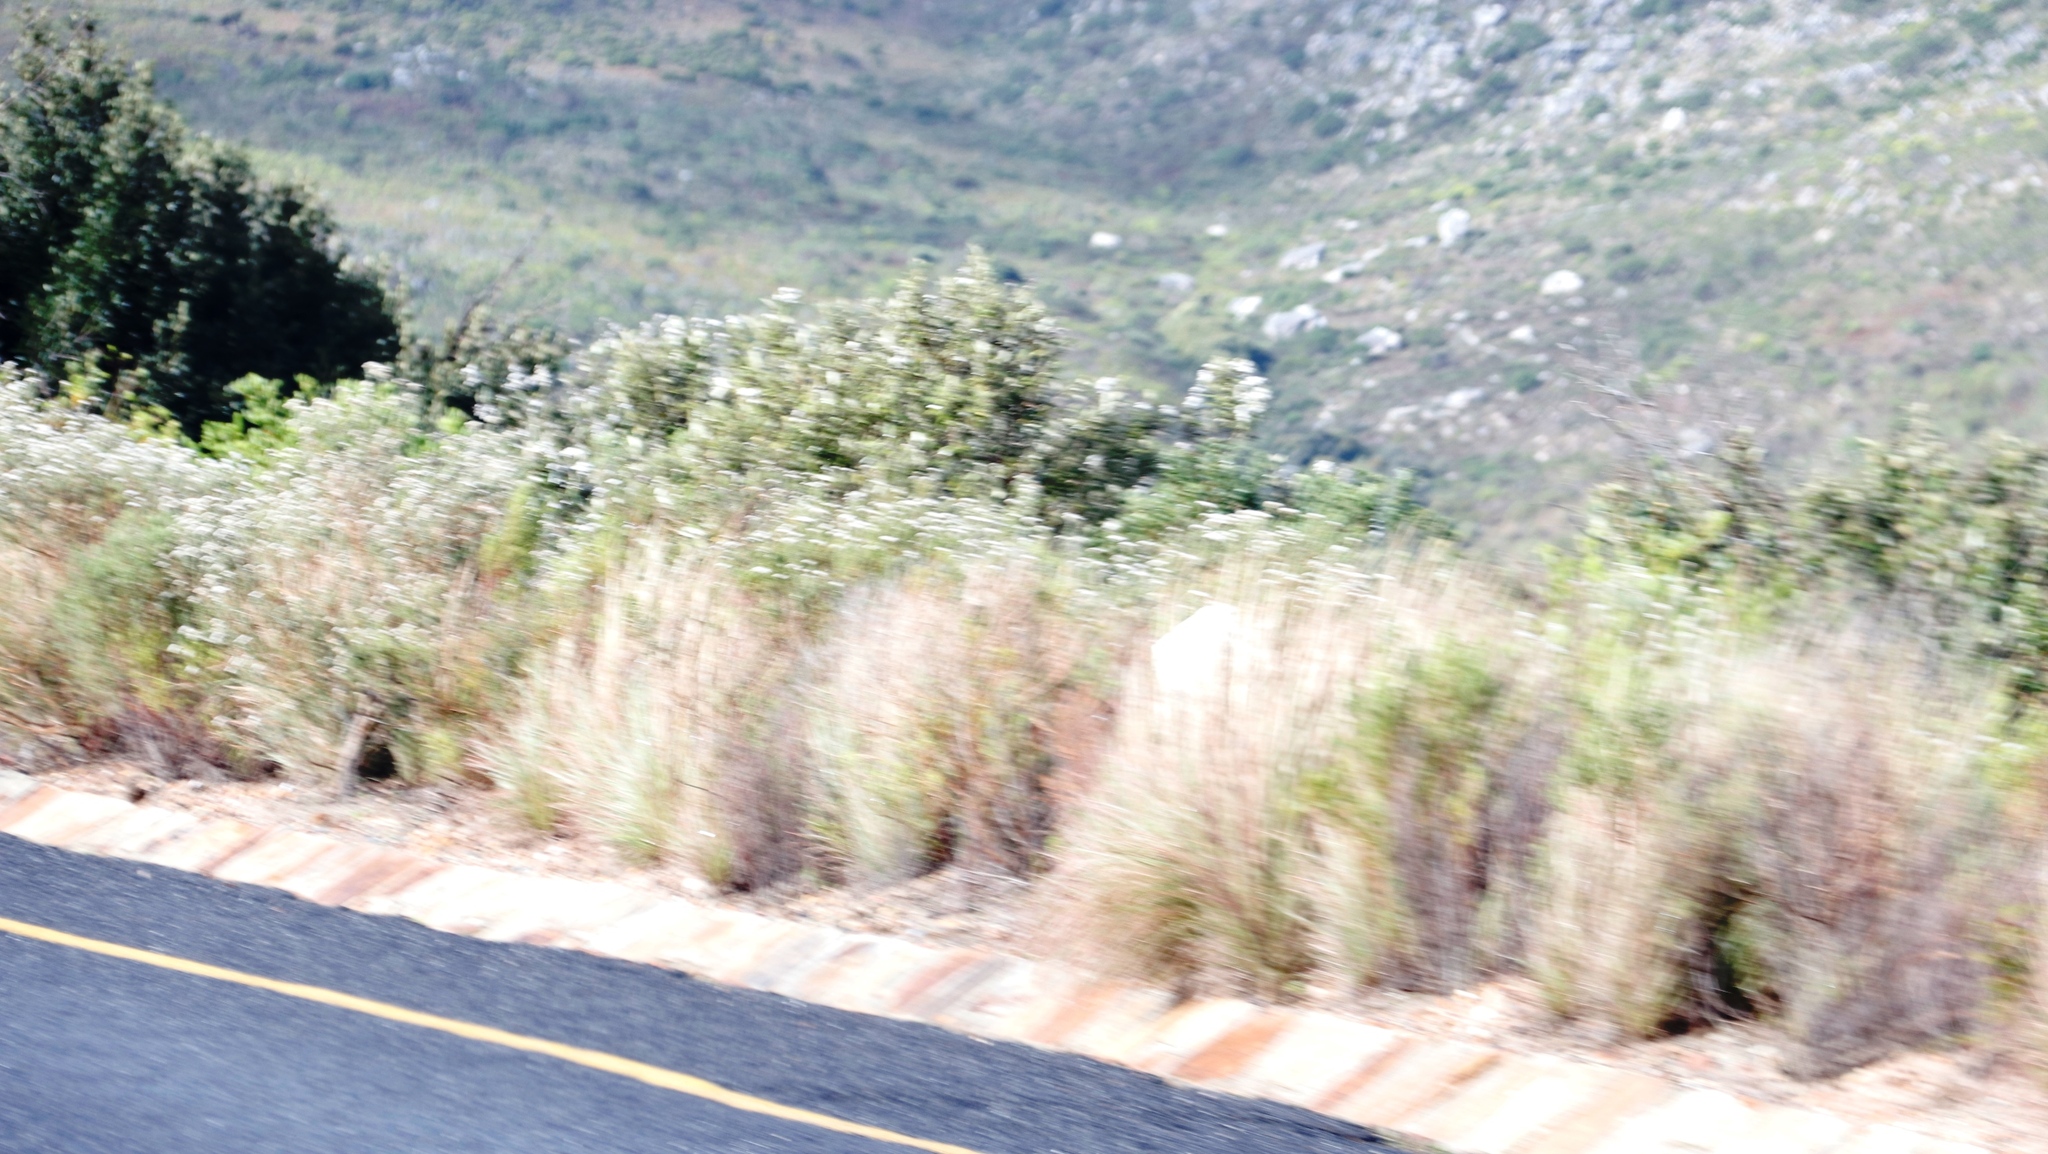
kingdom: Plantae
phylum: Tracheophyta
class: Liliopsida
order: Poales
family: Poaceae
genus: Hyparrhenia
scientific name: Hyparrhenia hirta
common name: Thatching grass
